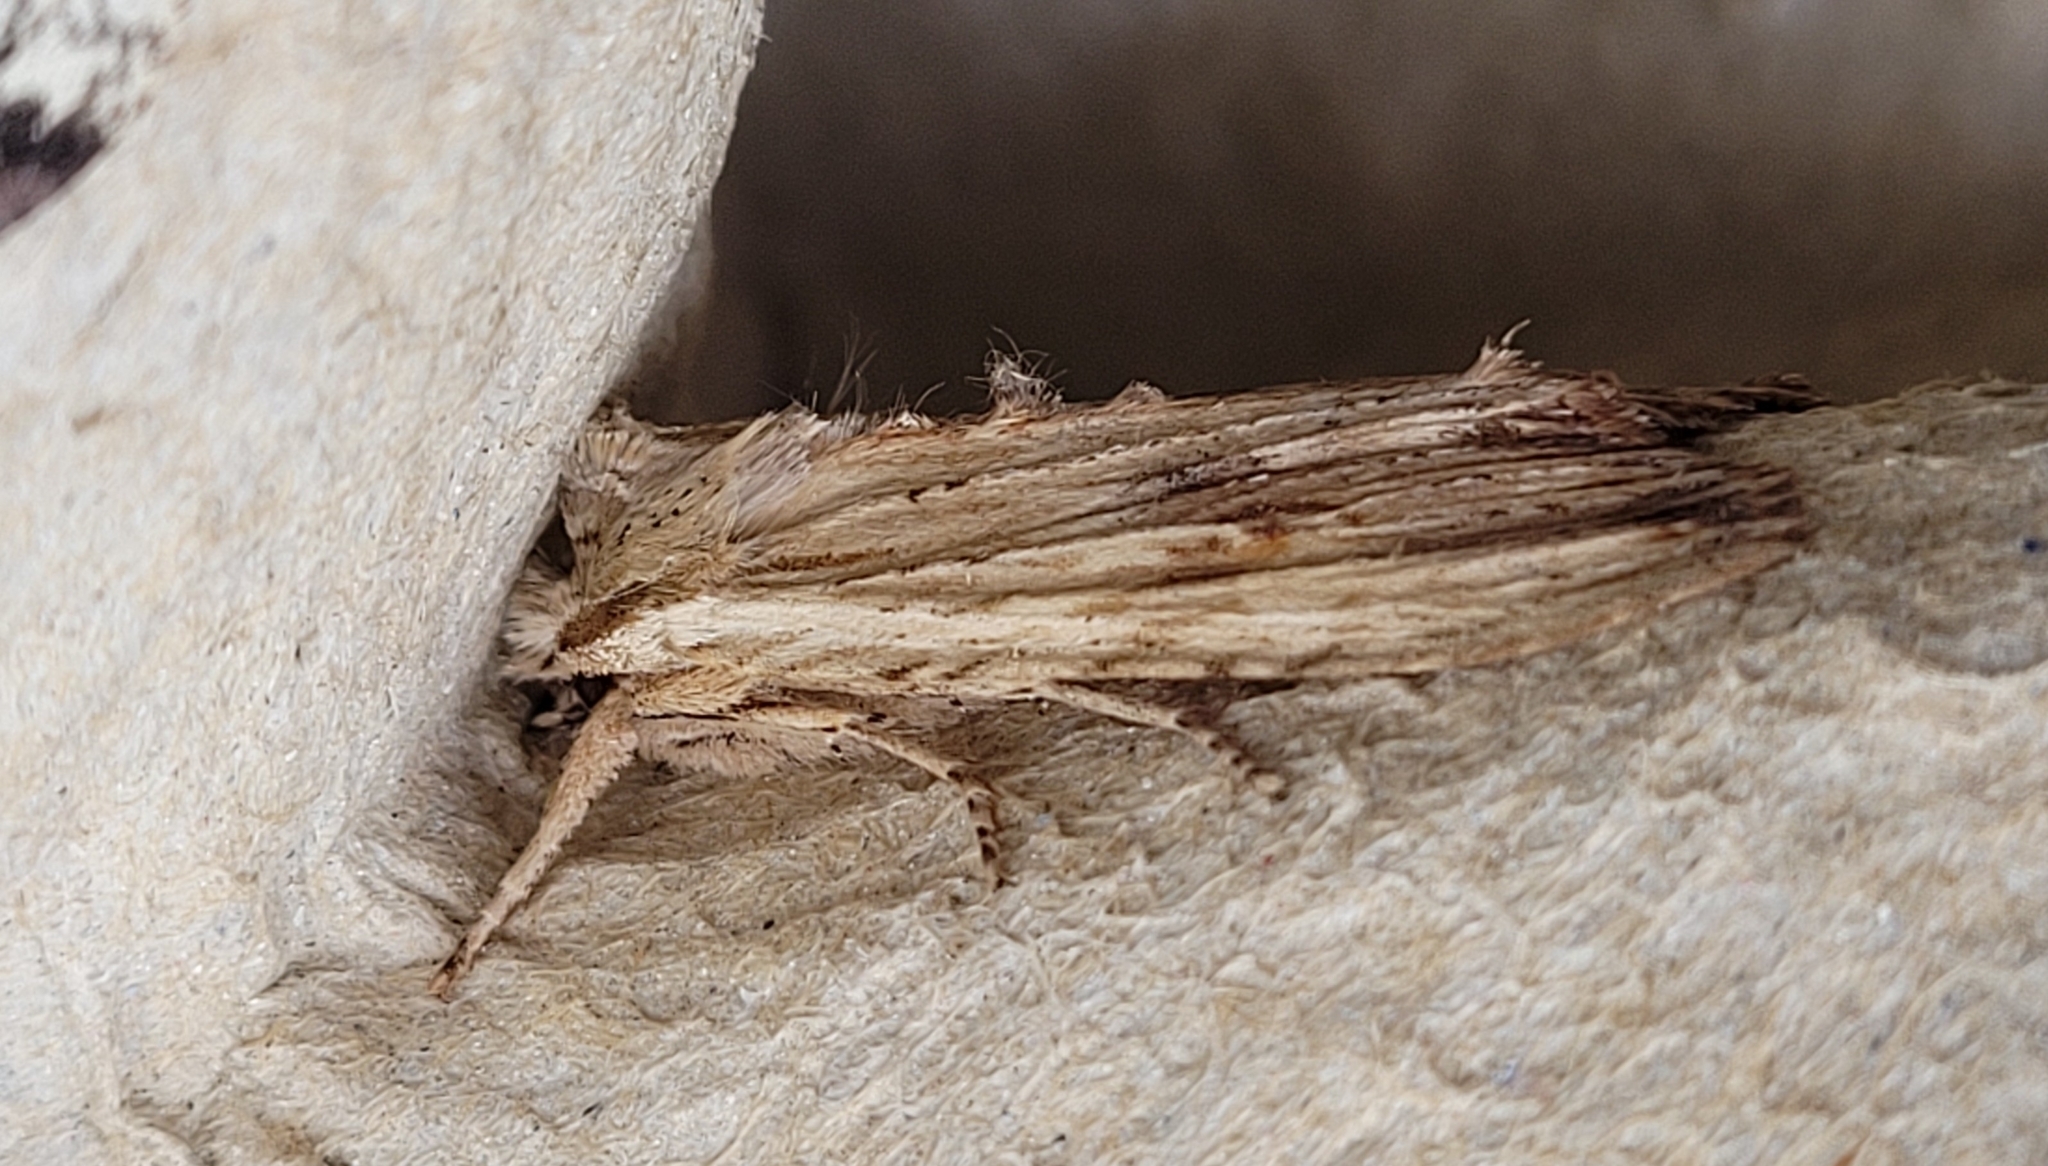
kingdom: Animalia
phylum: Arthropoda
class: Insecta
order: Lepidoptera
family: Noctuidae
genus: Lithophane
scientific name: Lithophane socia
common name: Pale pinion
